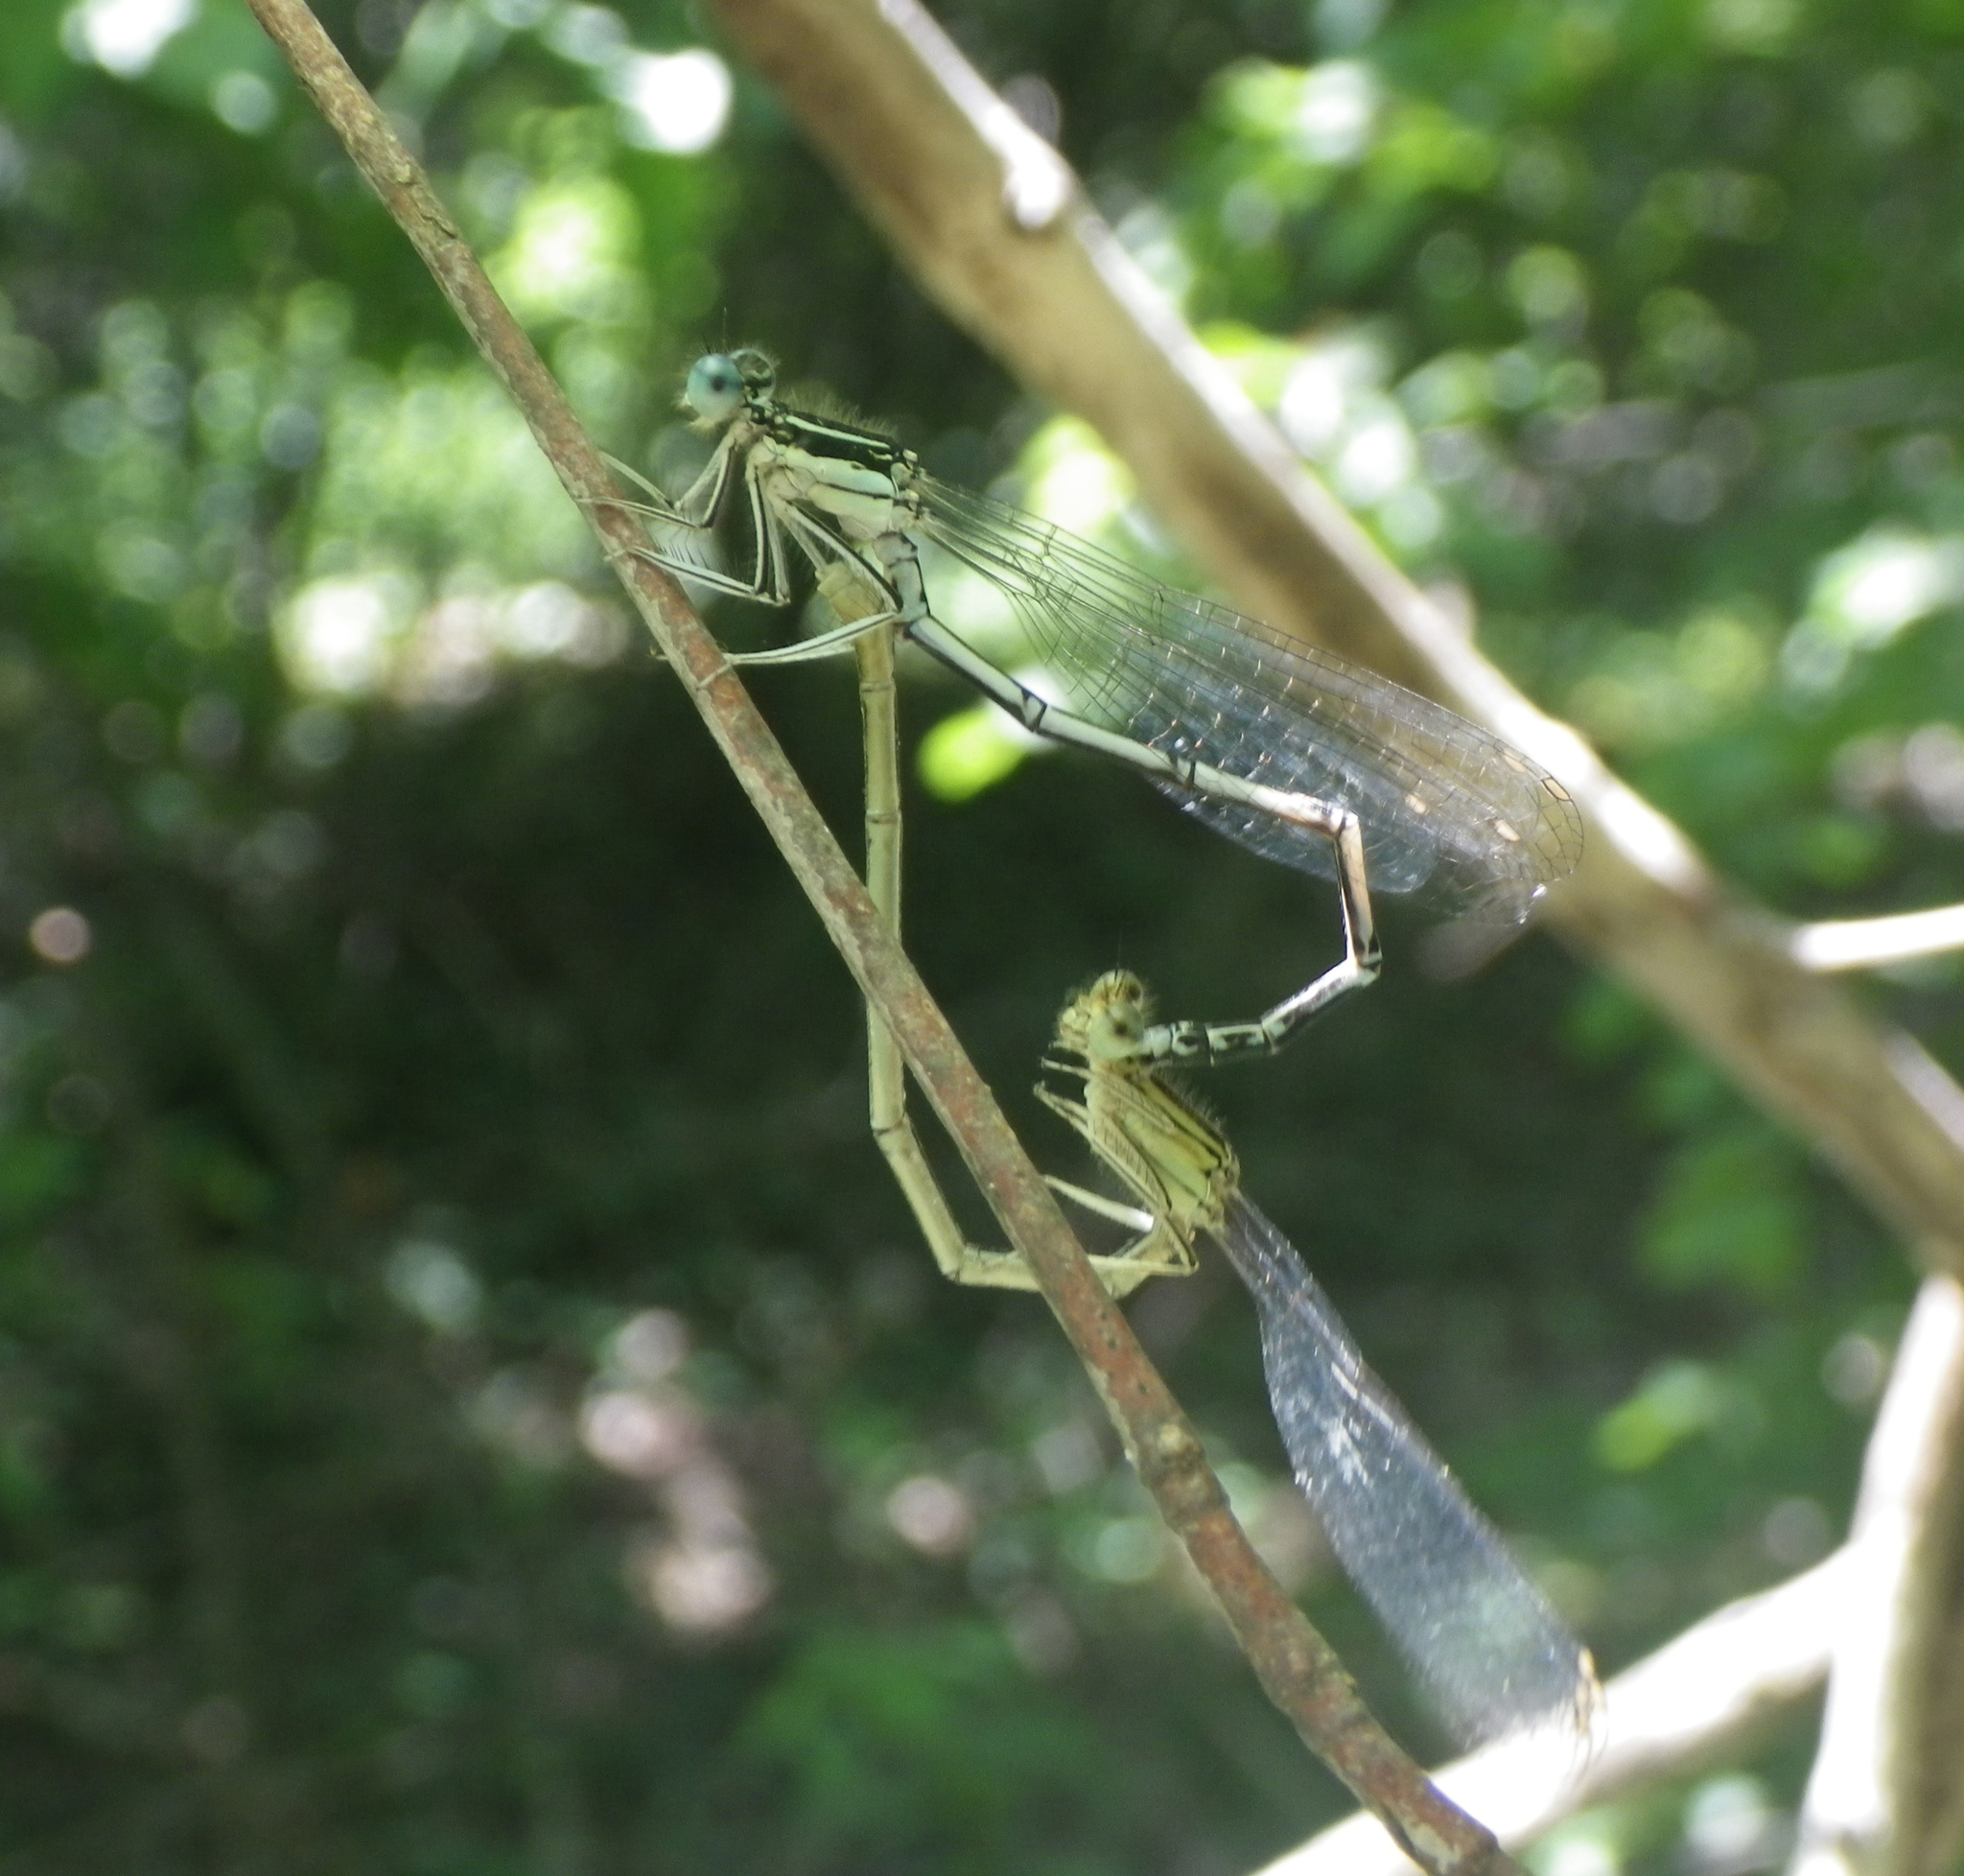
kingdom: Animalia
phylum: Arthropoda
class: Insecta
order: Odonata
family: Platycnemididae
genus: Platycnemis
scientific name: Platycnemis pennipes
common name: White-legged damselfly
